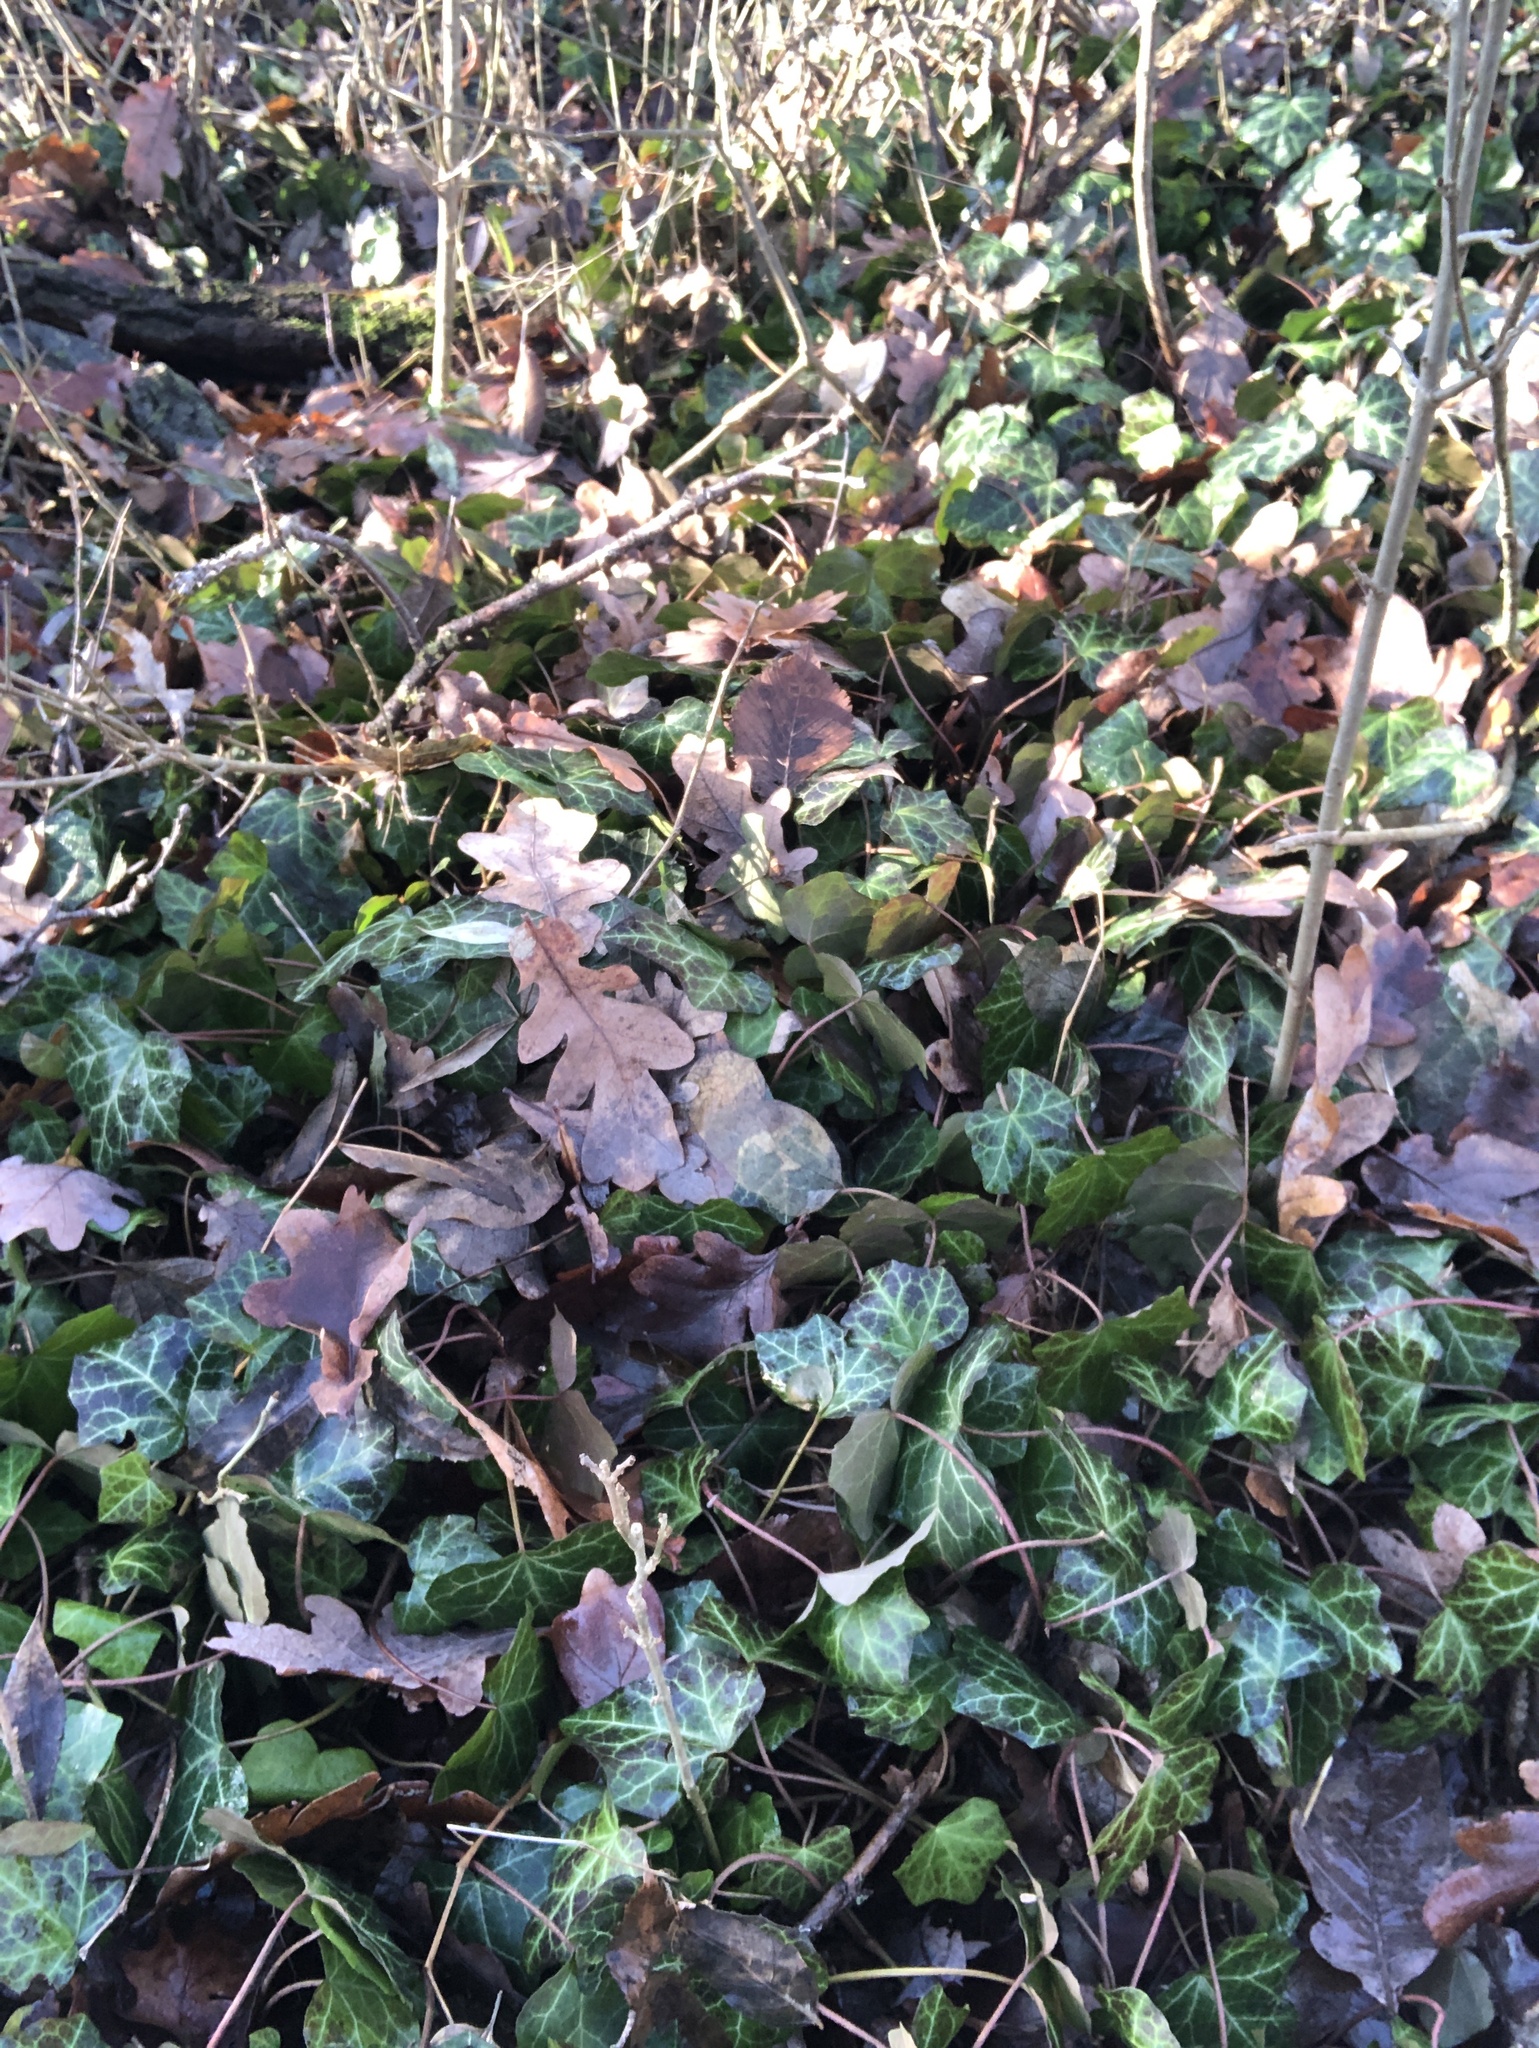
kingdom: Plantae
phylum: Tracheophyta
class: Magnoliopsida
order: Apiales
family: Araliaceae
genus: Hedera
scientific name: Hedera helix
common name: Ivy
